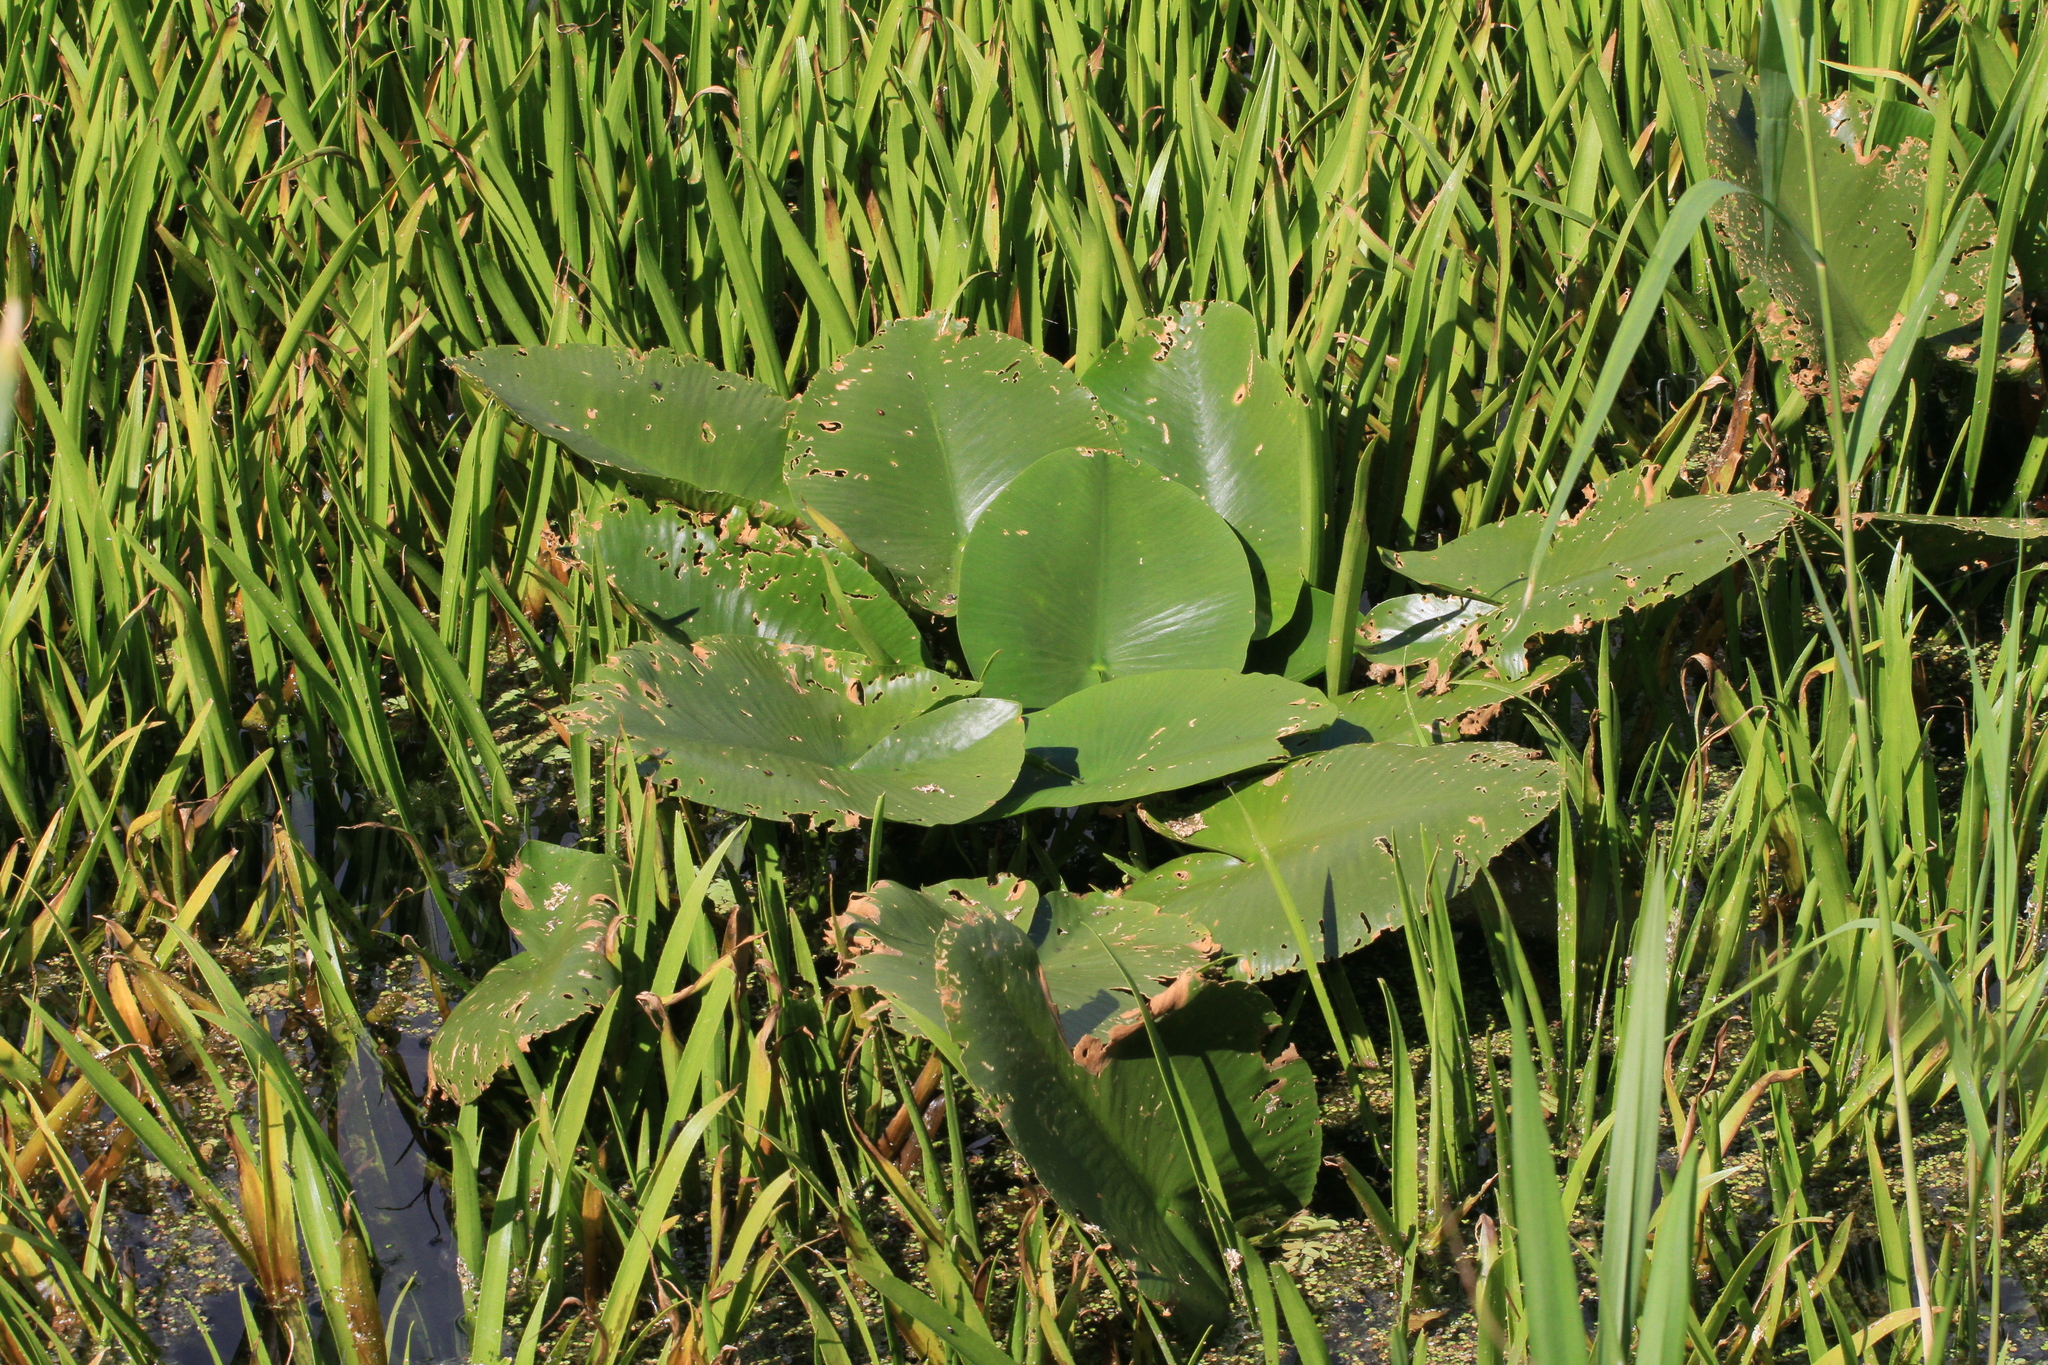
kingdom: Plantae
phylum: Tracheophyta
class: Magnoliopsida
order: Nymphaeales
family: Nymphaeaceae
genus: Nuphar
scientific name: Nuphar lutea
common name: Yellow water-lily
